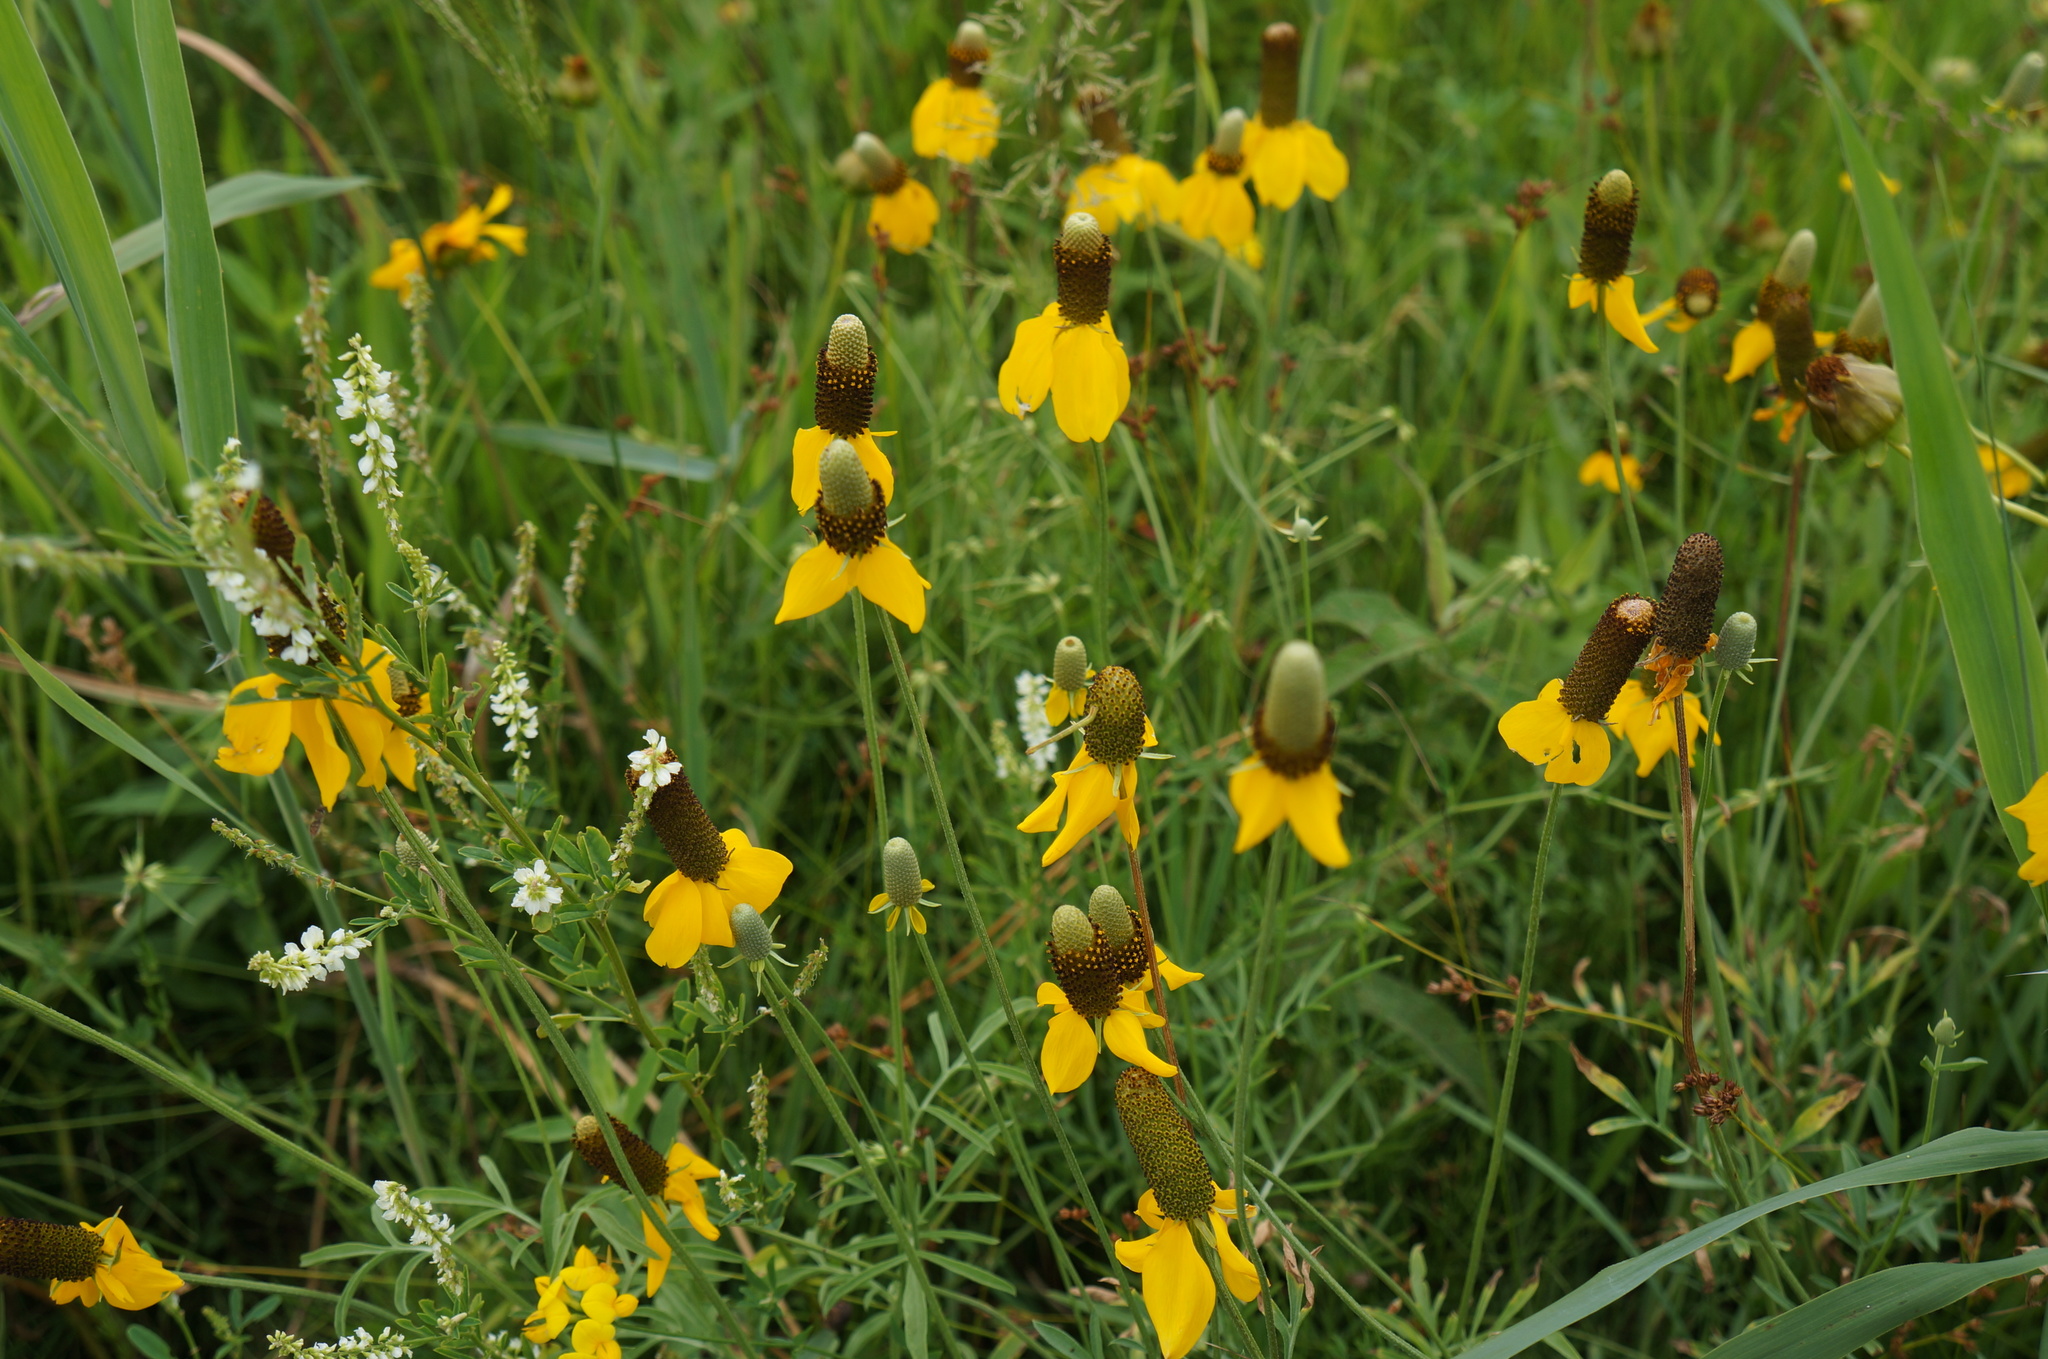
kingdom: Plantae
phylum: Tracheophyta
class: Magnoliopsida
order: Asterales
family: Asteraceae
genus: Ratibida
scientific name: Ratibida columnifera
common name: Prairie coneflower
